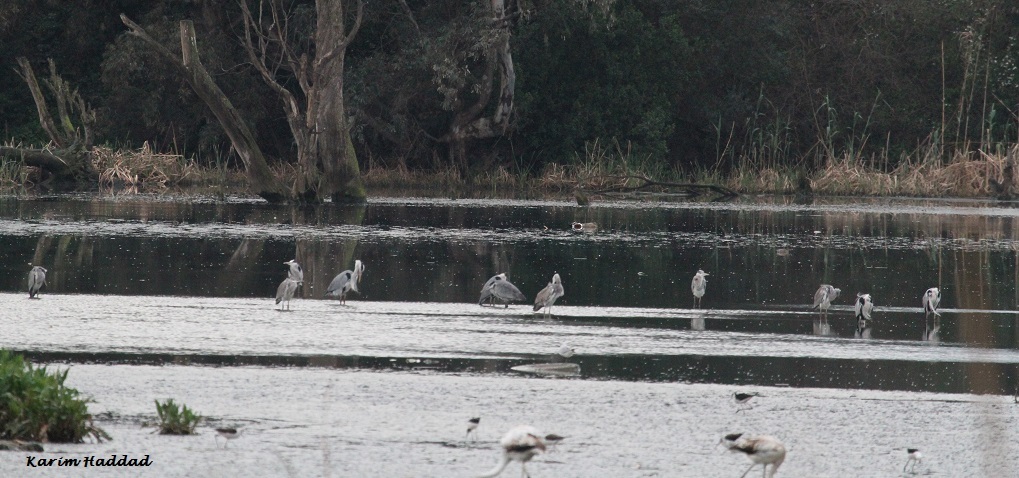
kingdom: Animalia
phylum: Chordata
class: Aves
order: Pelecaniformes
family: Ardeidae
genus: Ardea
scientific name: Ardea cinerea
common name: Grey heron
